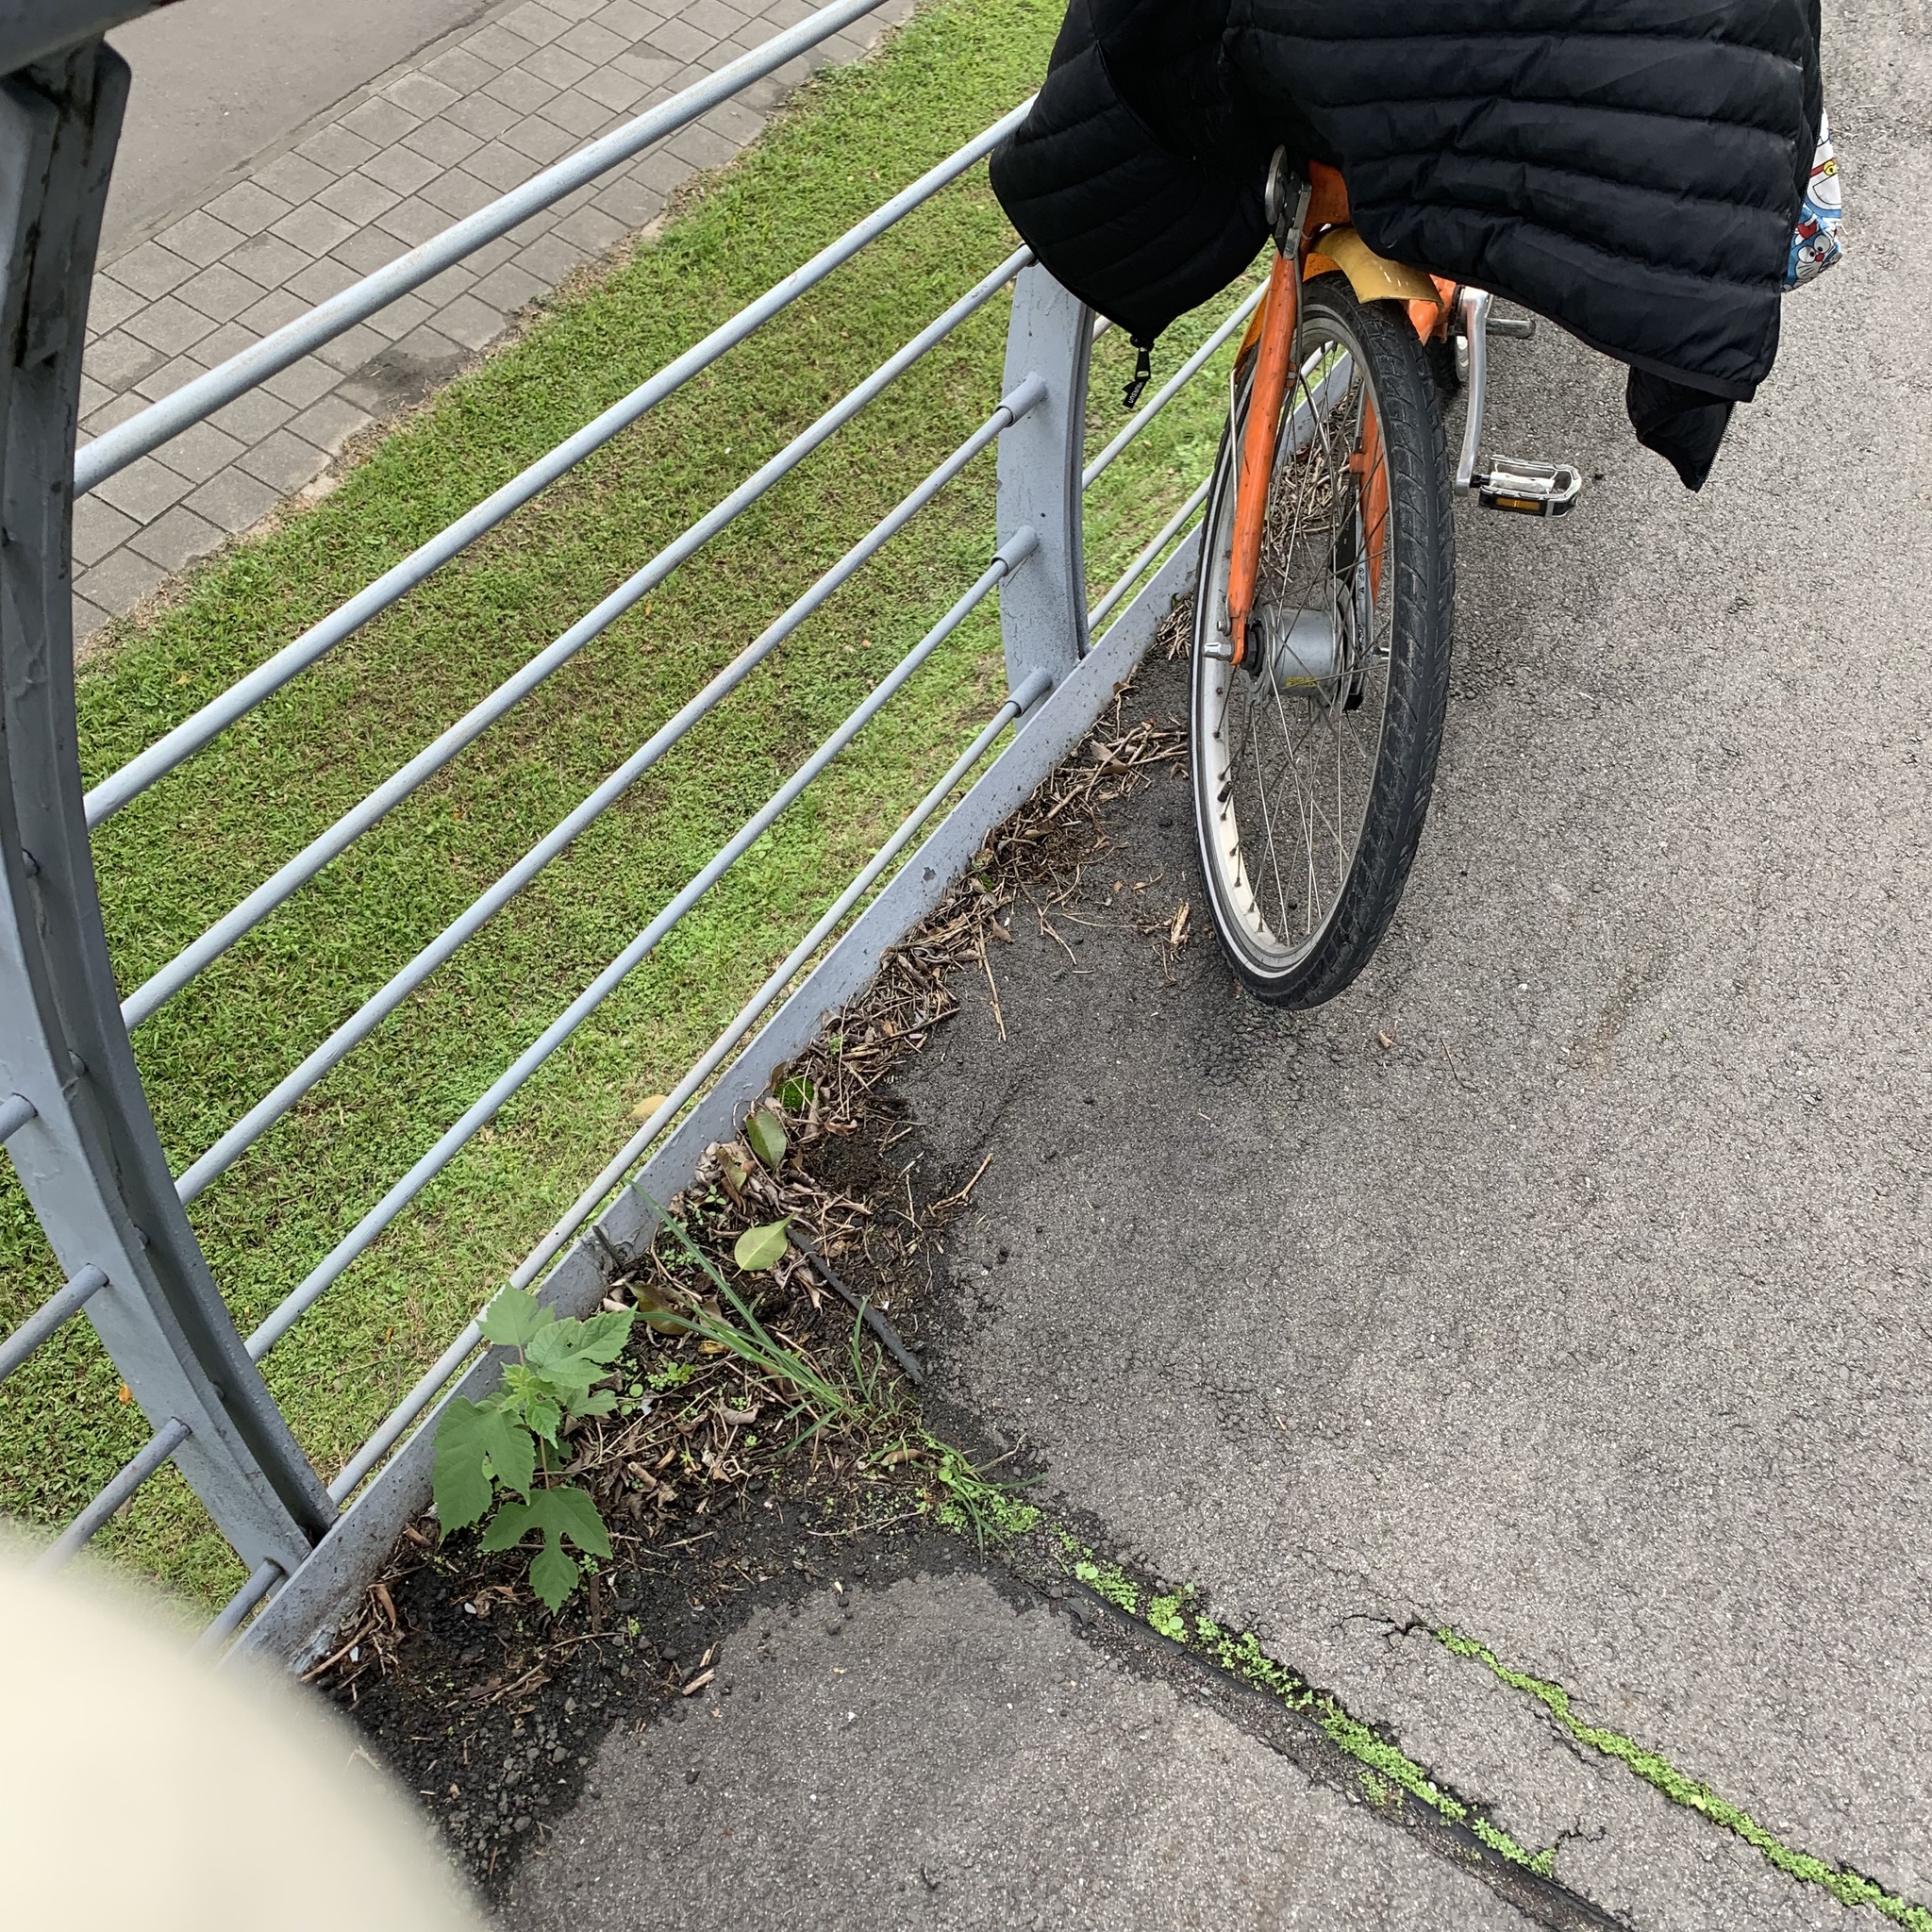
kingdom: Plantae
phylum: Tracheophyta
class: Magnoliopsida
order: Rosales
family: Moraceae
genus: Broussonetia
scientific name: Broussonetia papyrifera
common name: Paper mulberry
